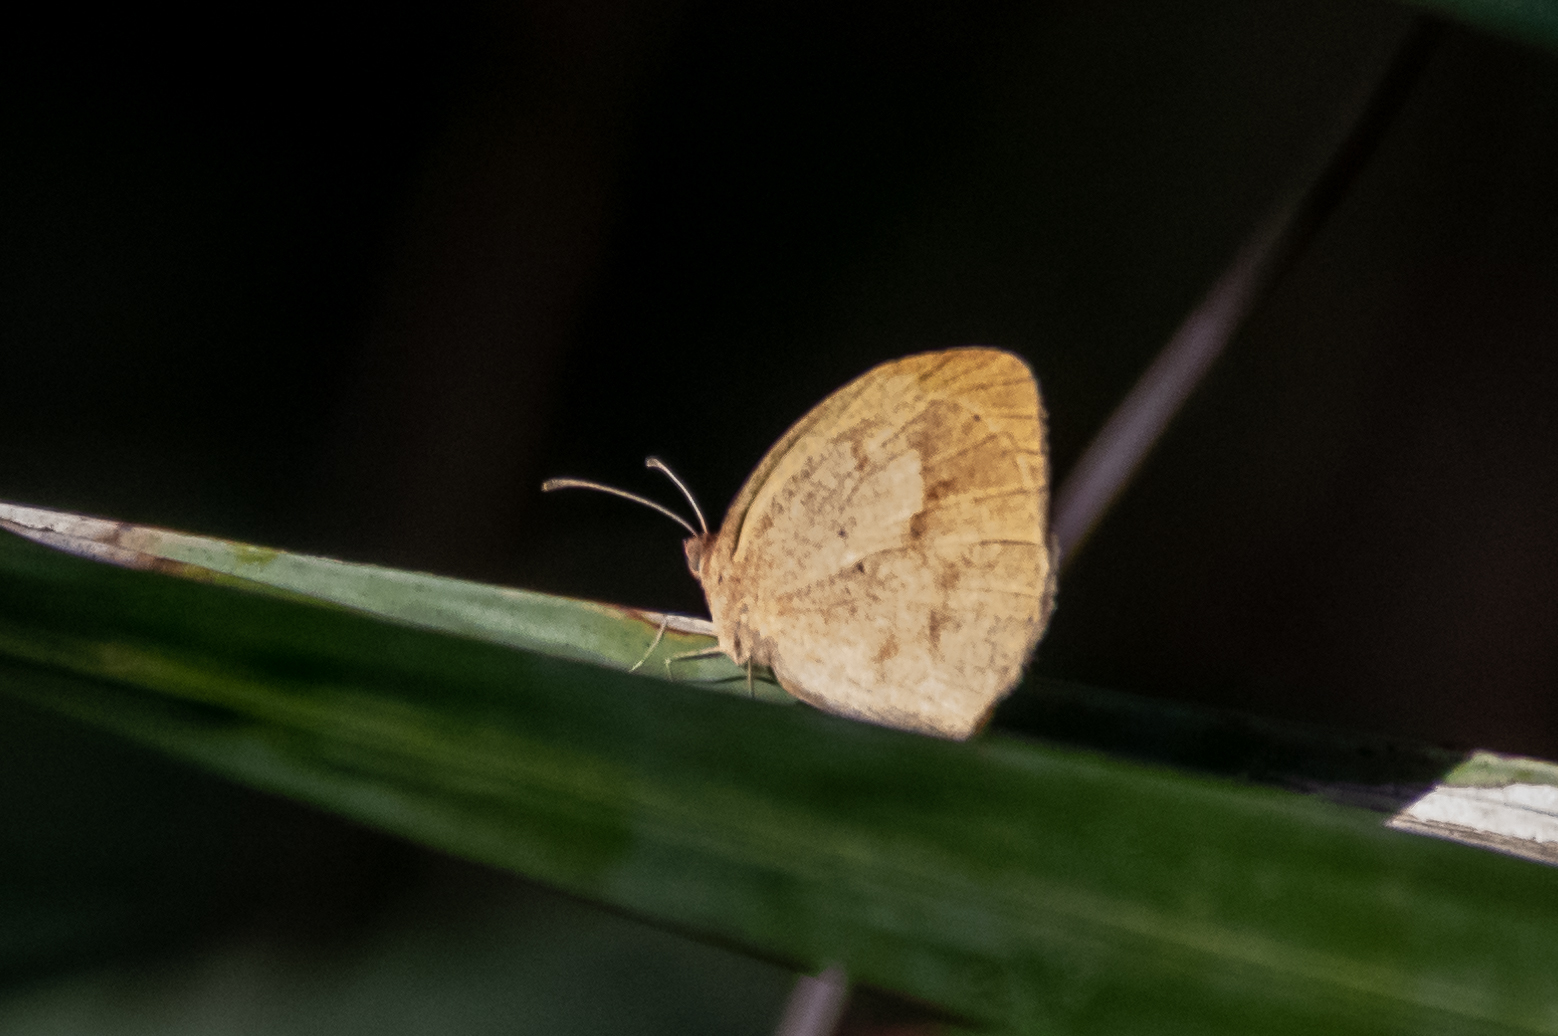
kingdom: Animalia
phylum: Arthropoda
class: Insecta
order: Lepidoptera
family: Pieridae
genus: Eurema
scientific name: Eurema daira
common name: Barred sulphur
